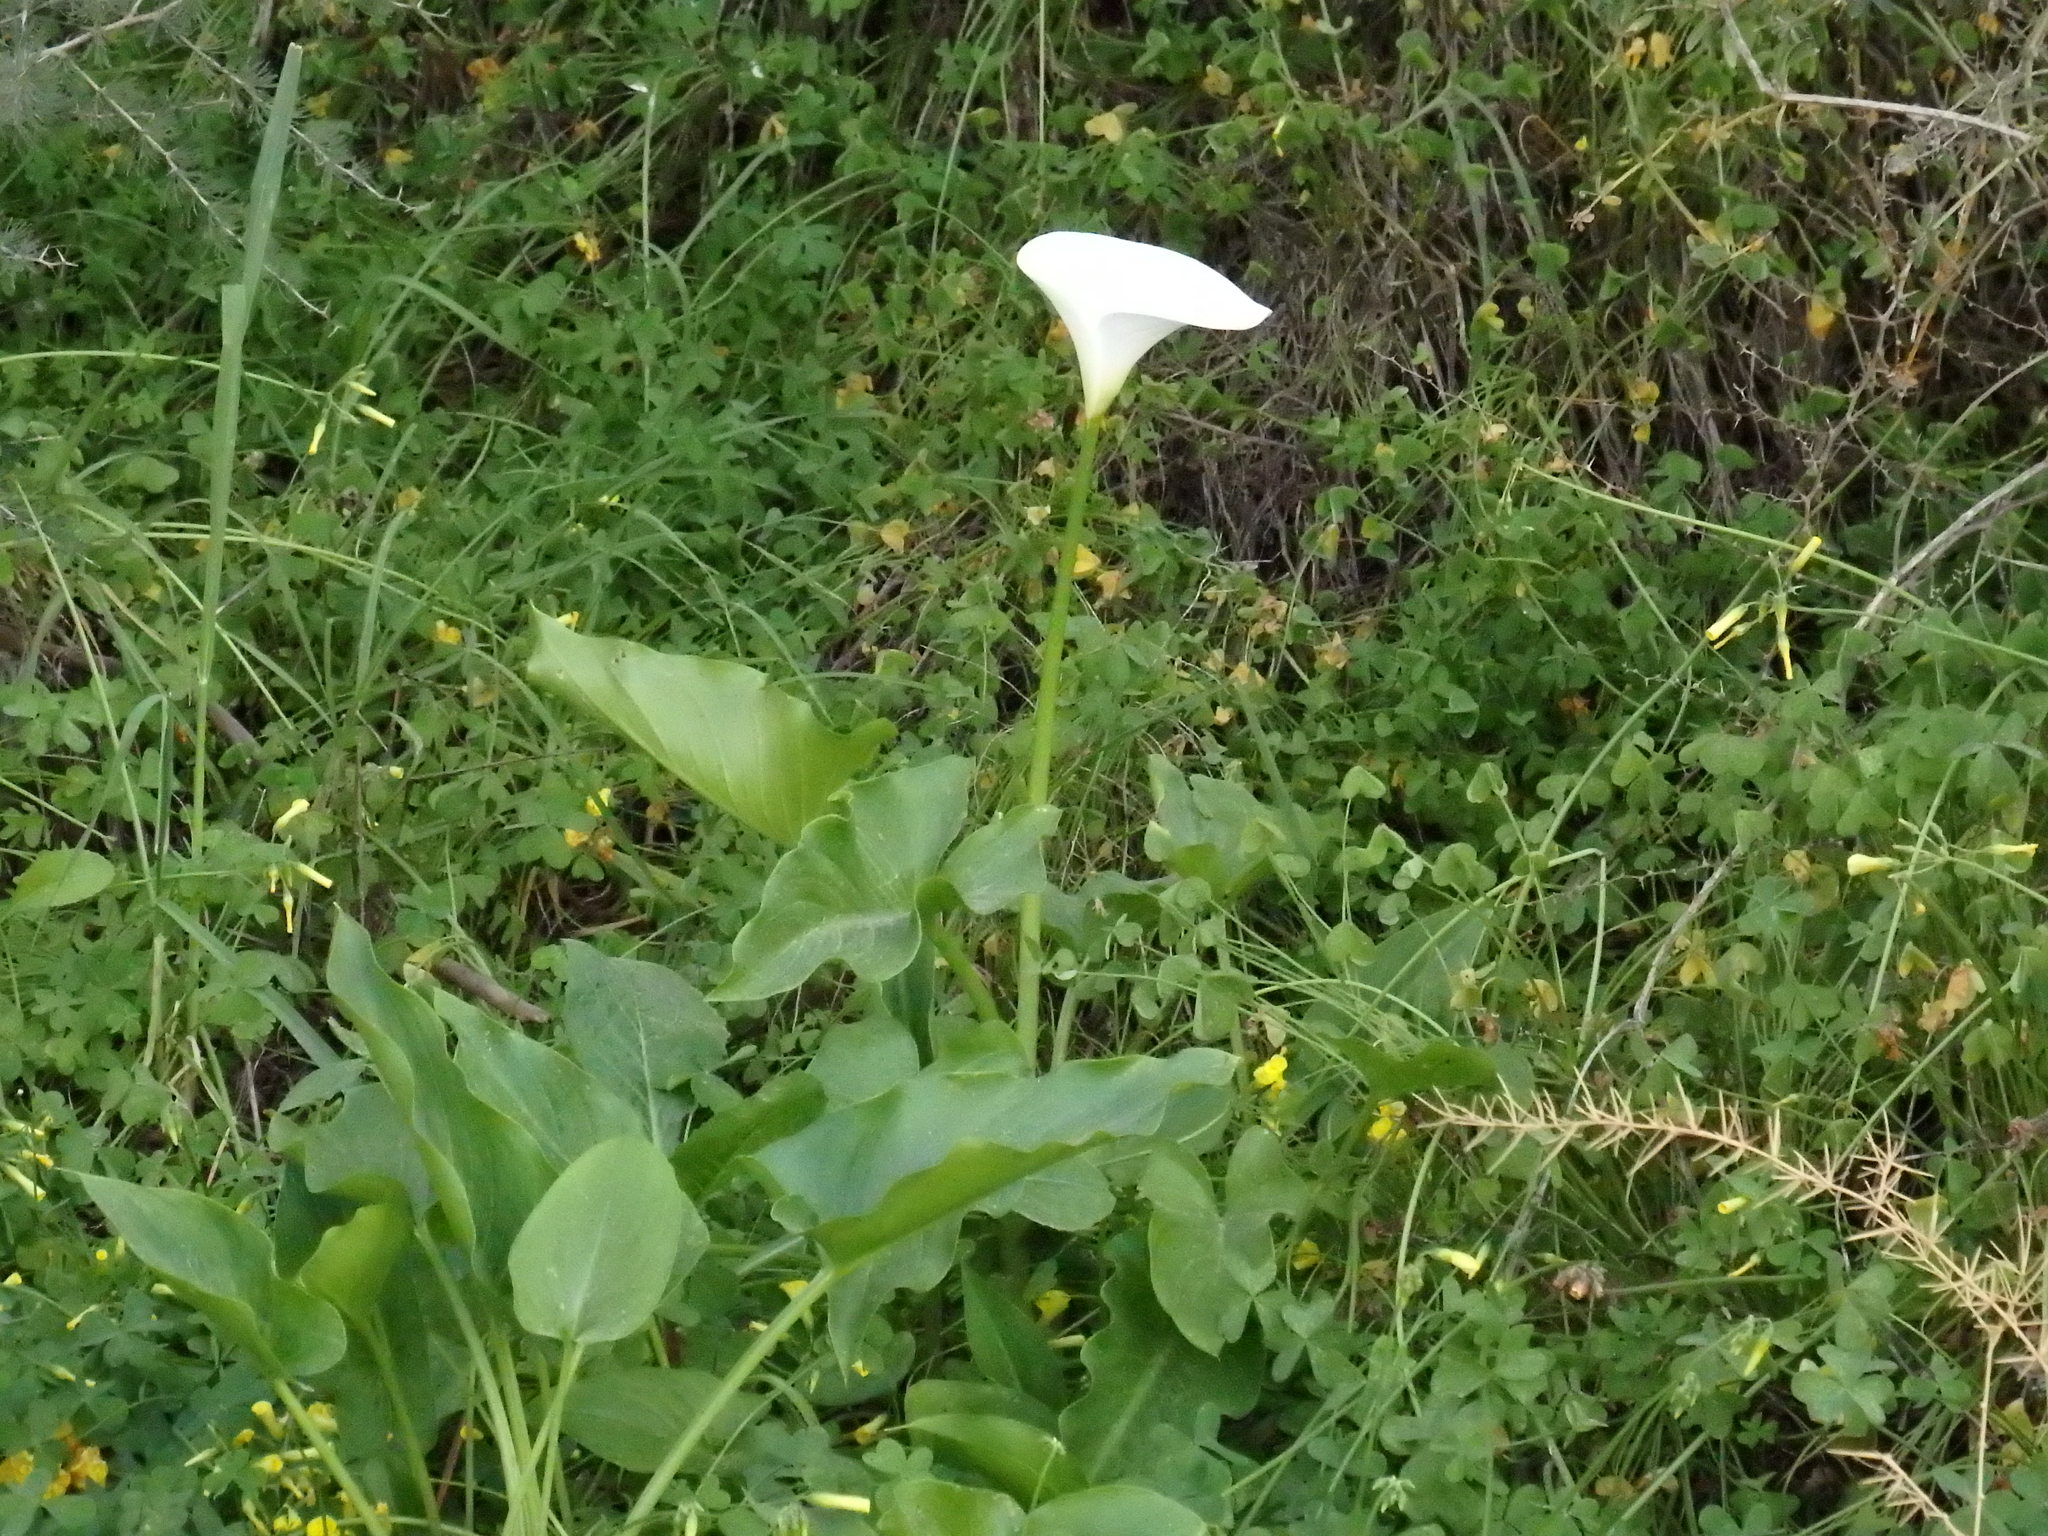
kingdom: Plantae
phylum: Tracheophyta
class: Liliopsida
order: Alismatales
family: Araceae
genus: Zantedeschia
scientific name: Zantedeschia aethiopica
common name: Altar-lily
